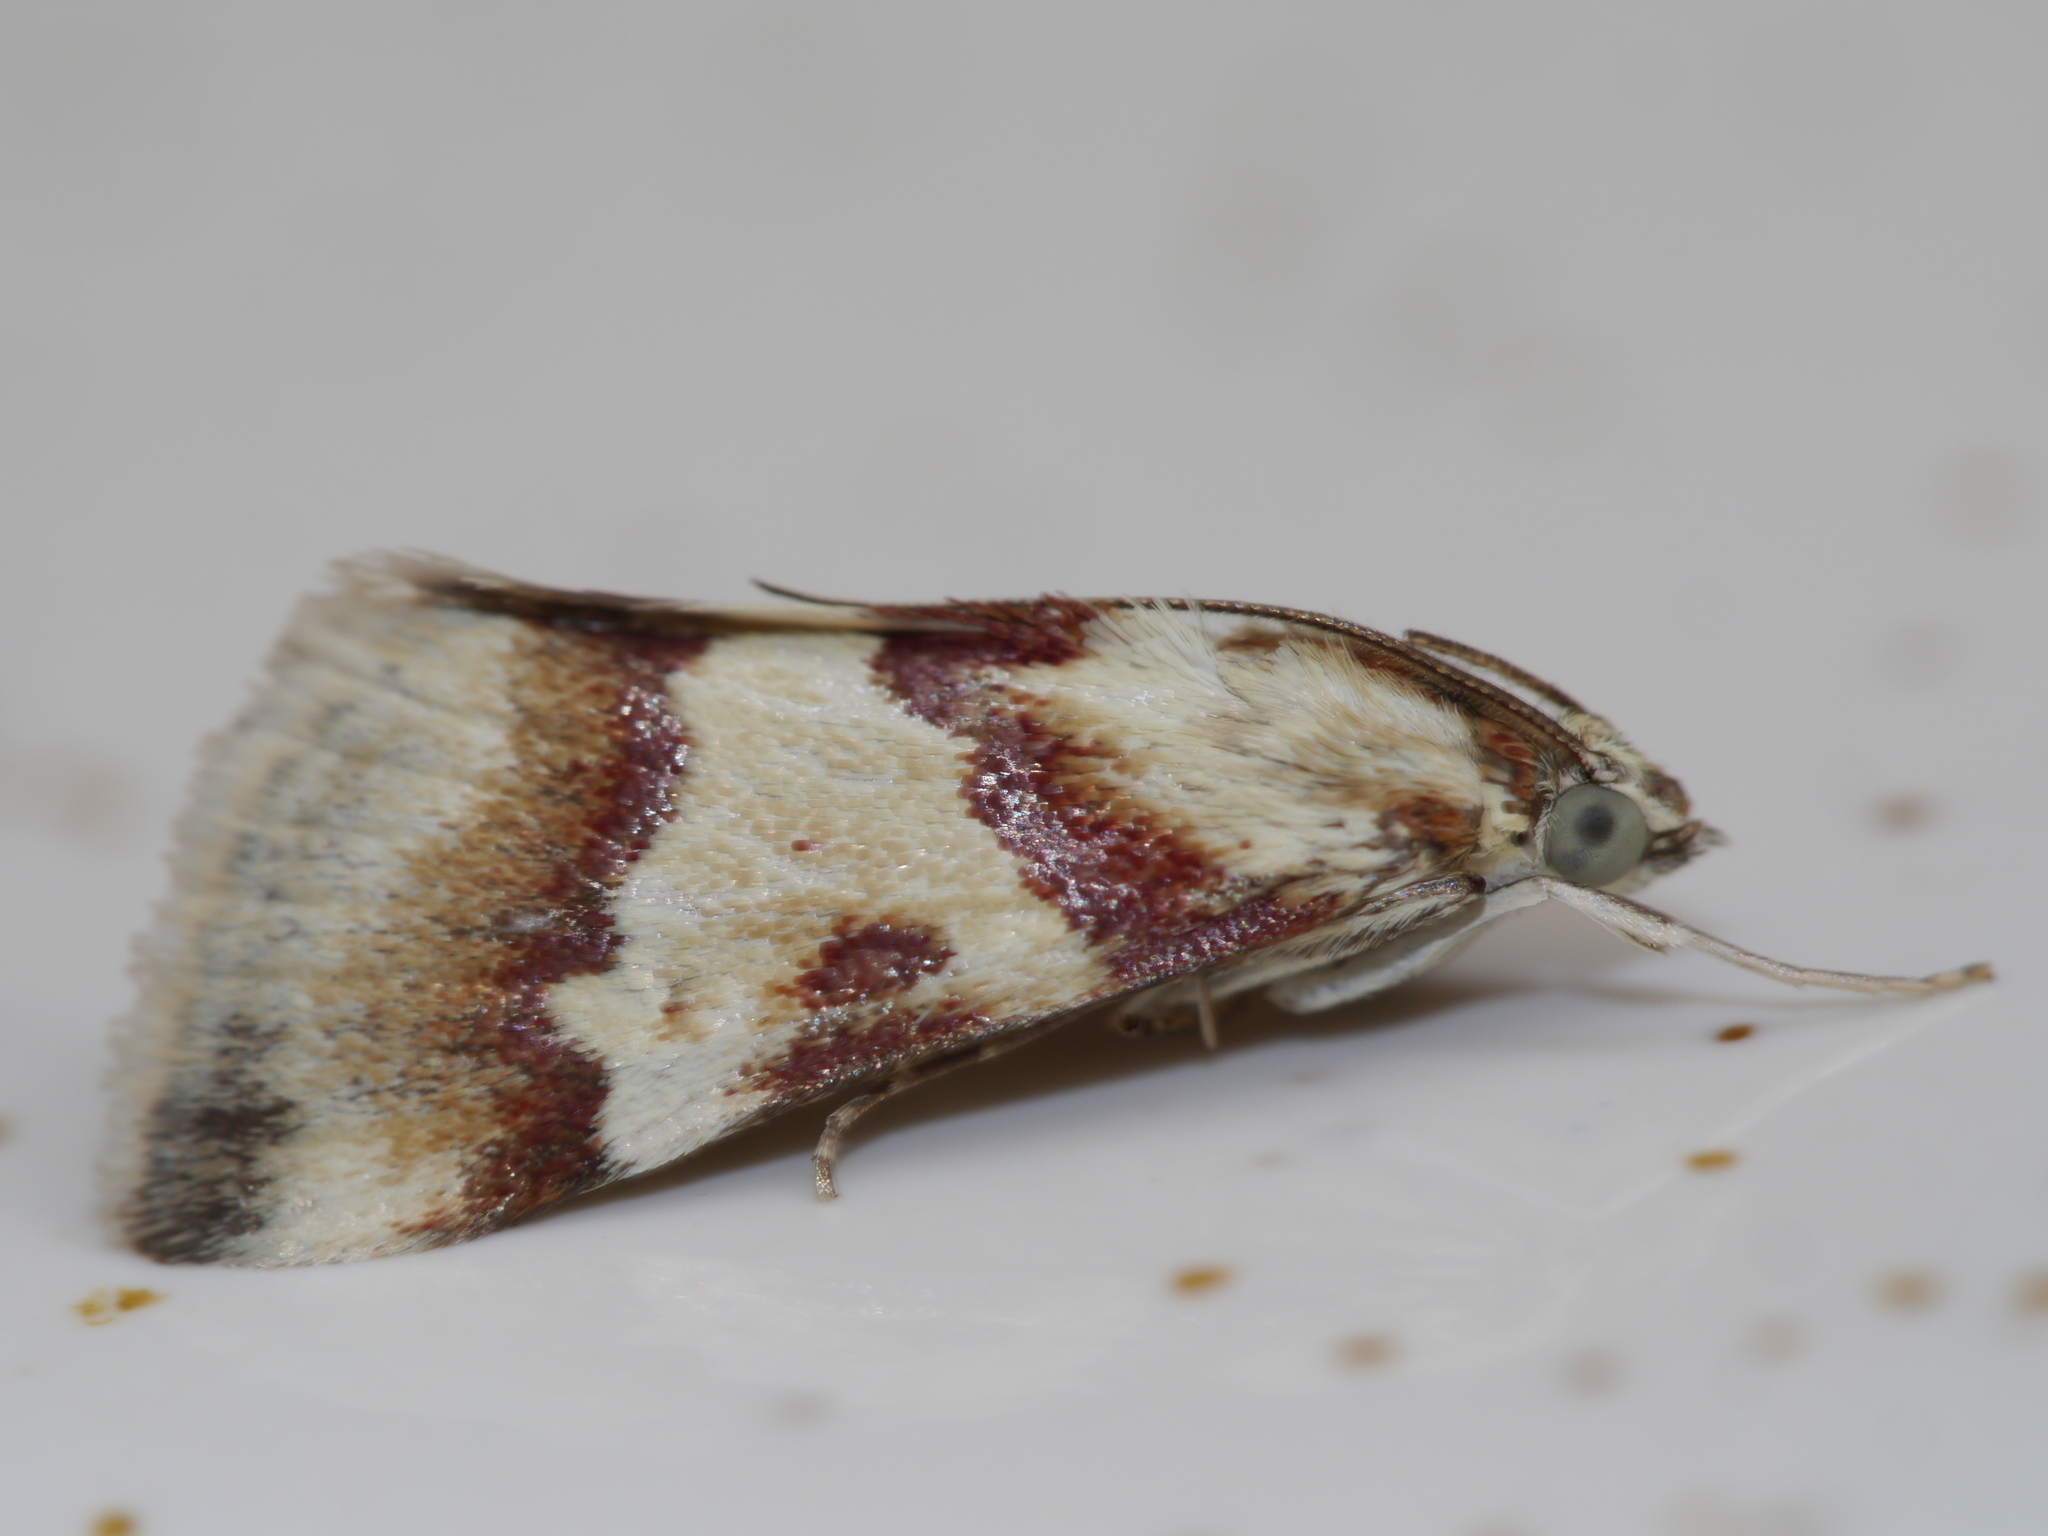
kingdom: Animalia
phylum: Arthropoda
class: Insecta
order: Lepidoptera
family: Crambidae
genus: Noctuelia
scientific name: Noctuelia Mimoschinia rufofascialis
